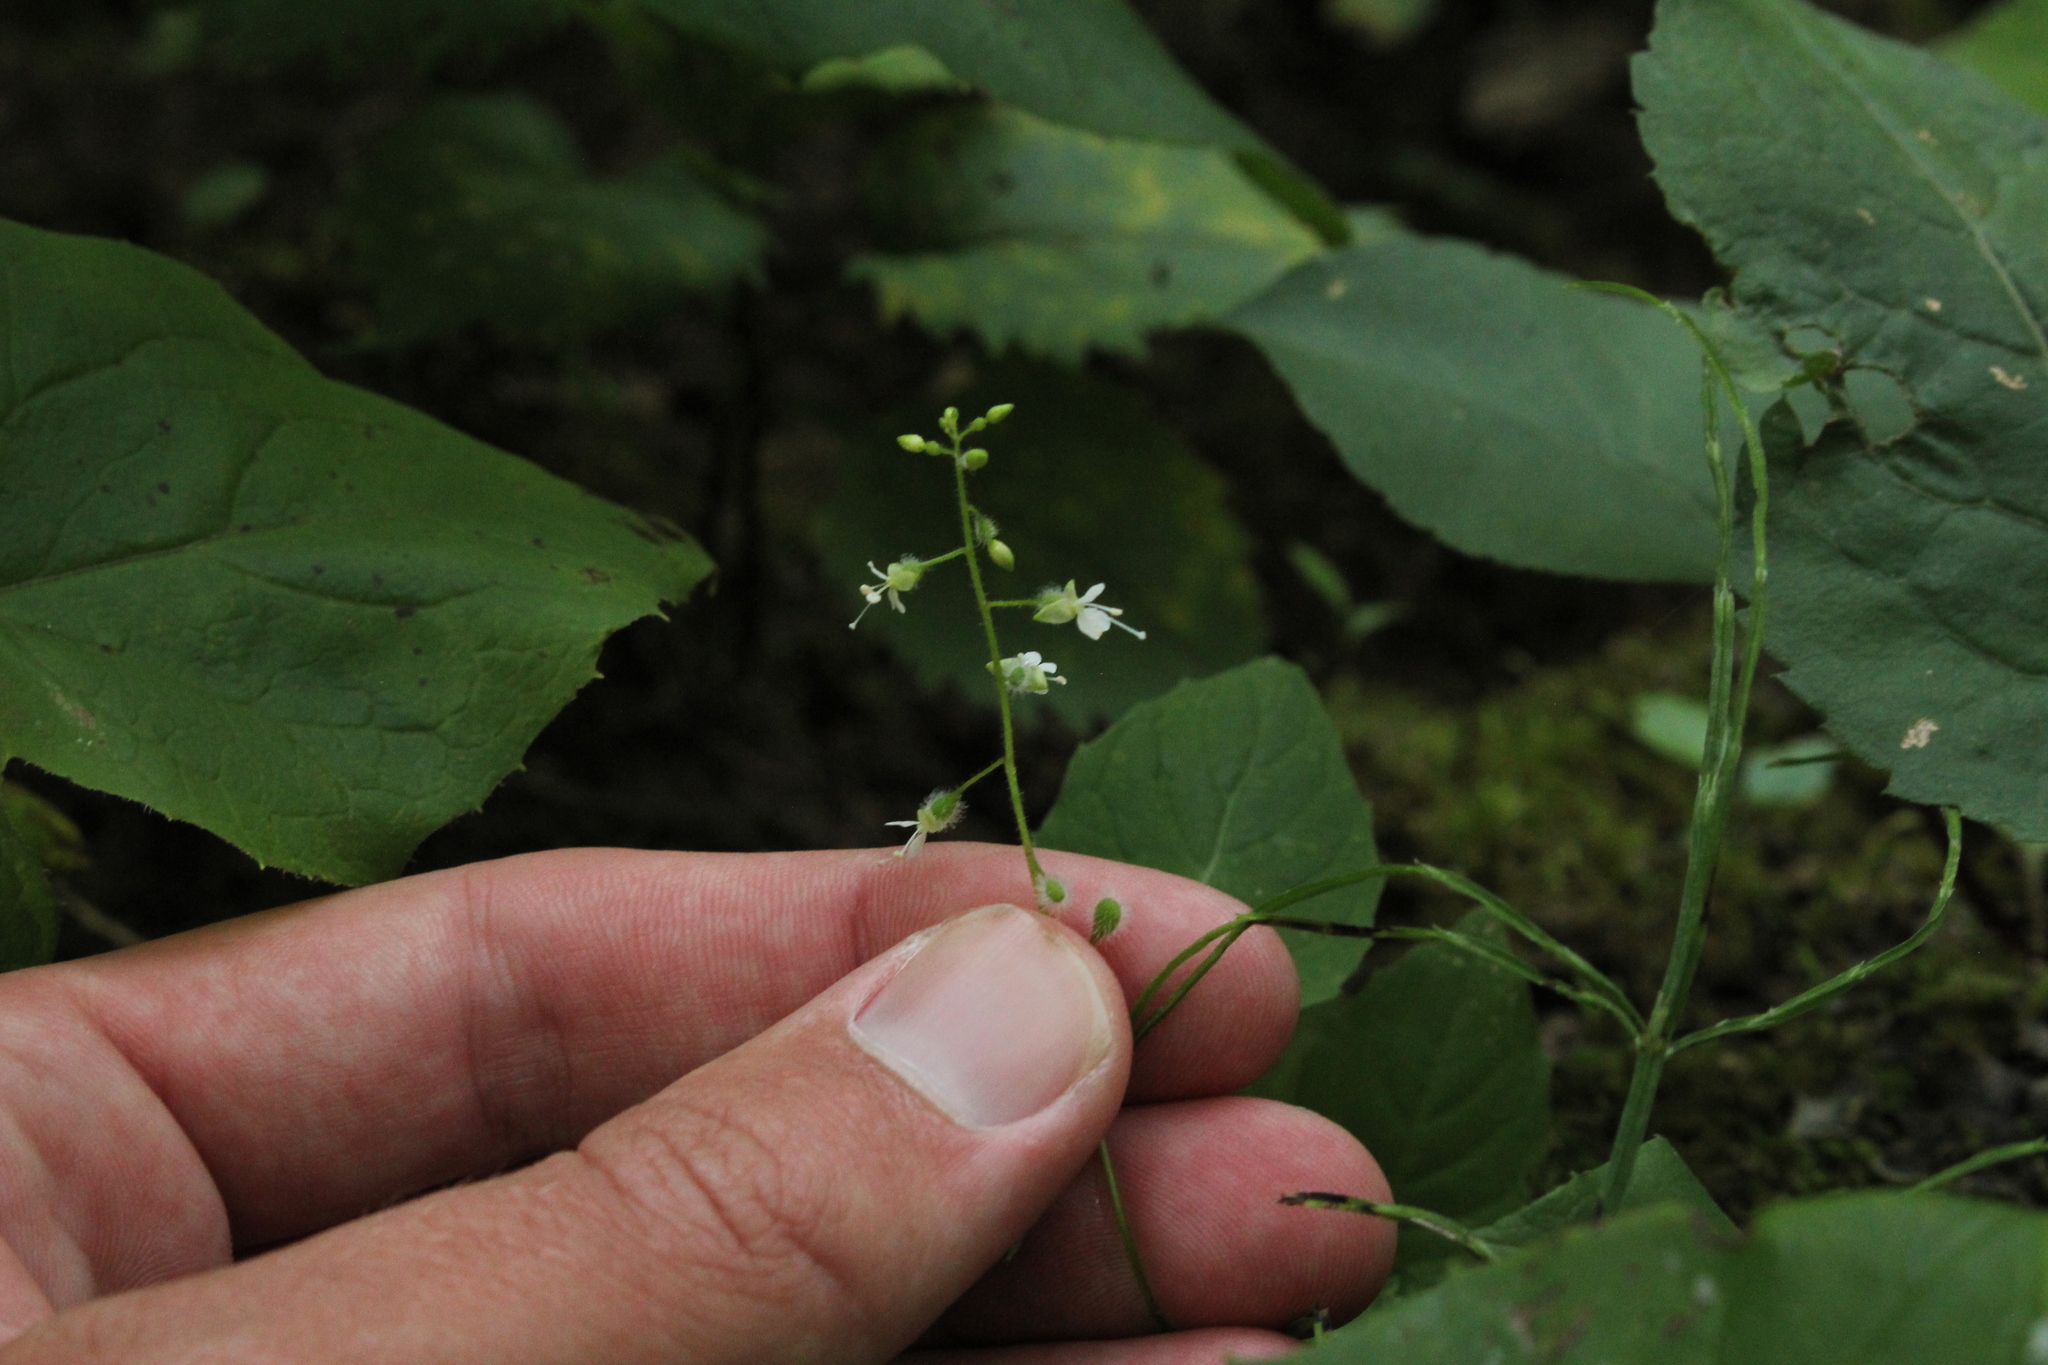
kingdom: Plantae
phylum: Tracheophyta
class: Magnoliopsida
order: Myrtales
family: Onagraceae
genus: Circaea
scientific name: Circaea canadensis
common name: Broad-leaved enchanter's nightshade
